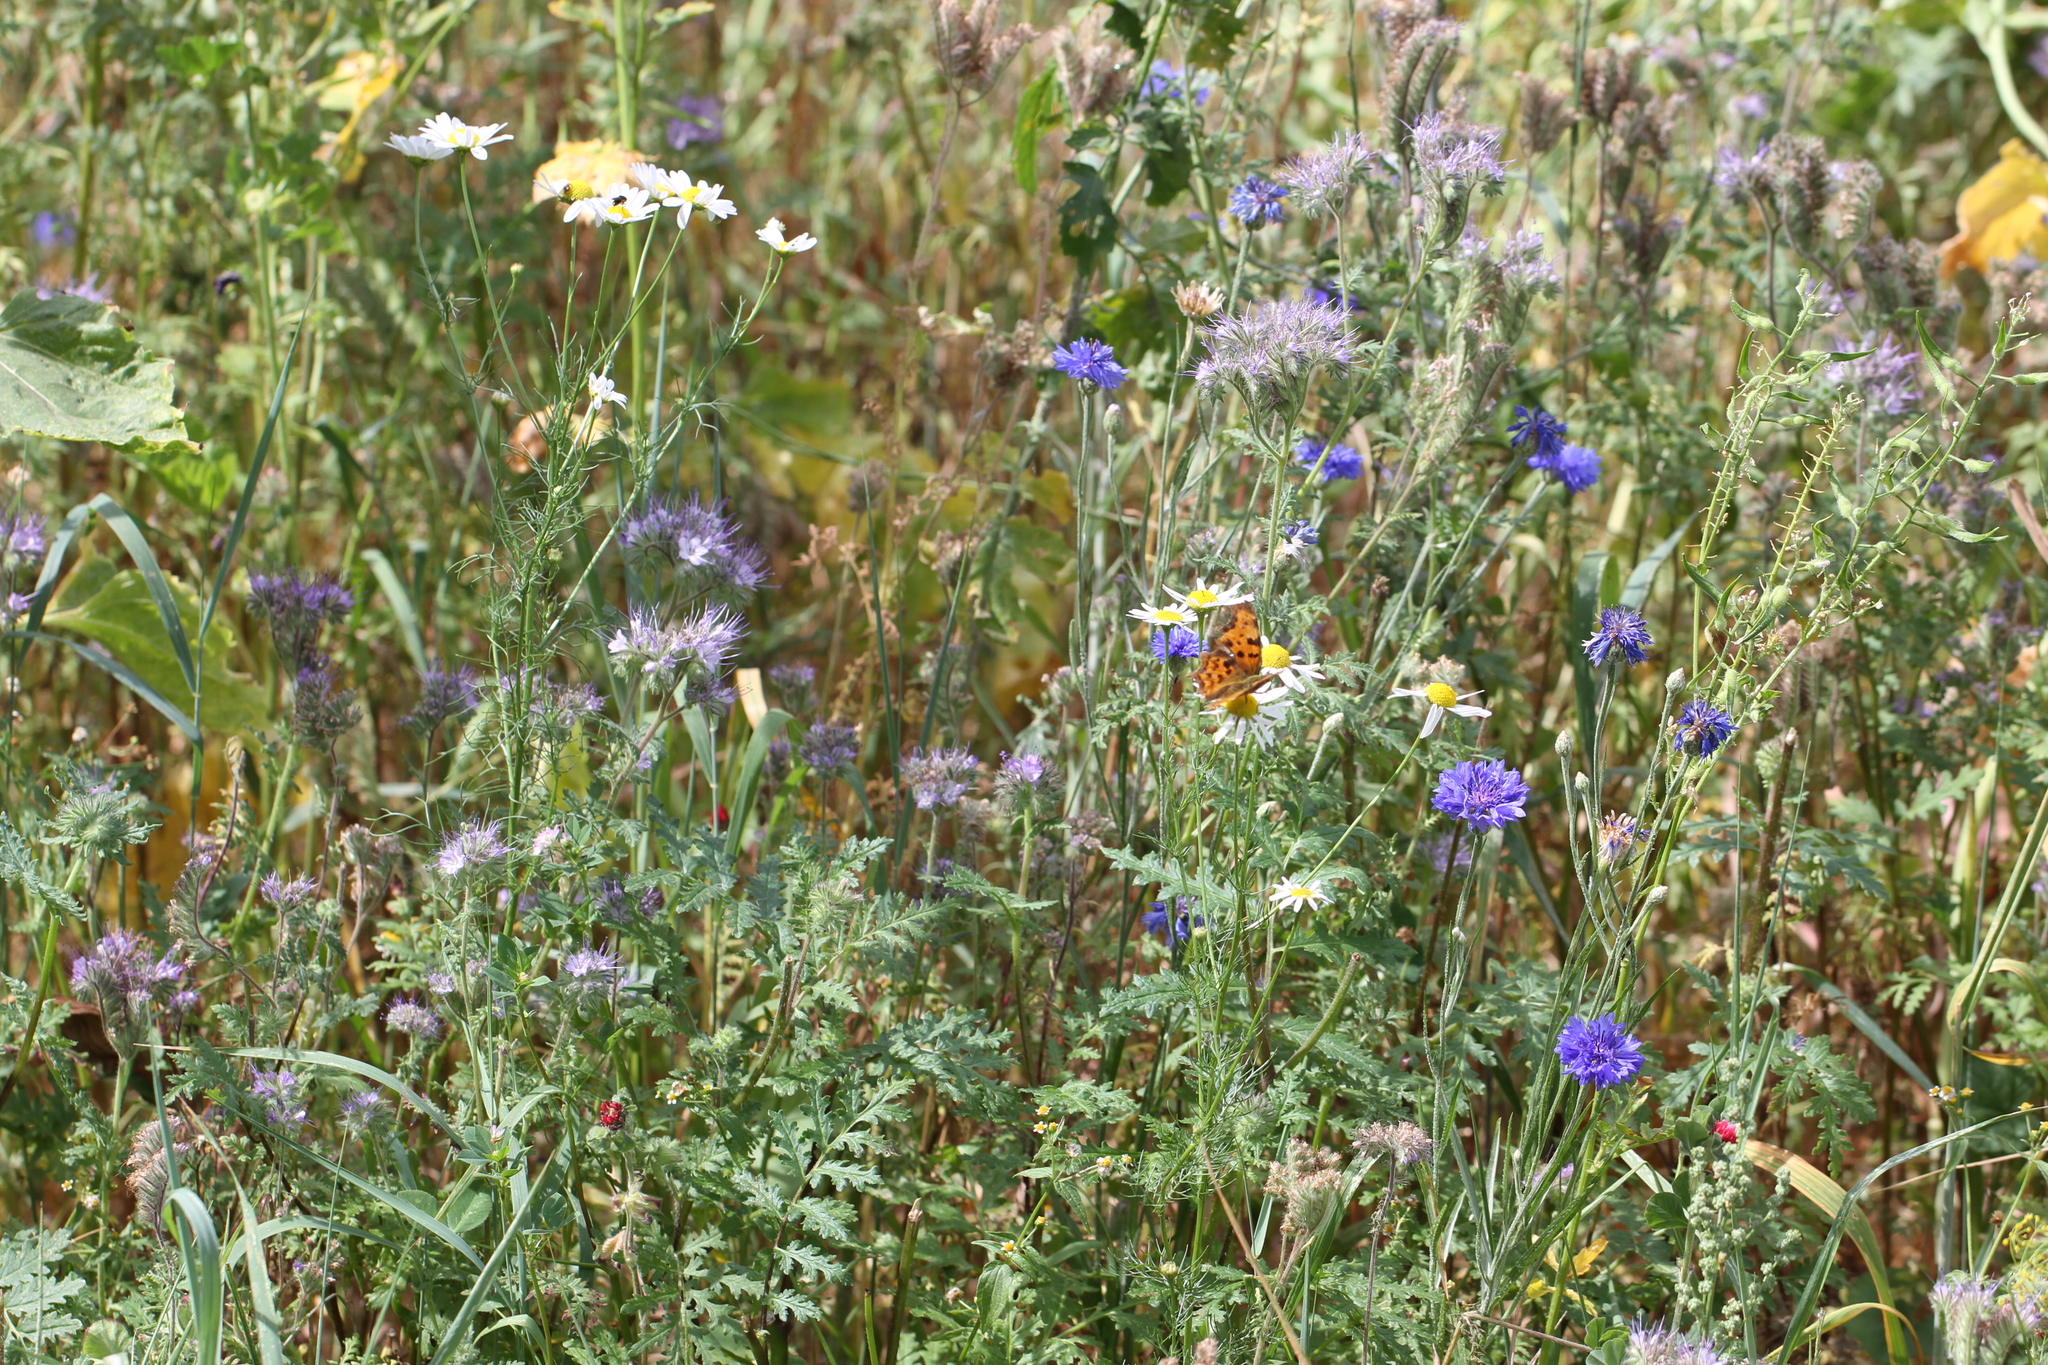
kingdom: Animalia
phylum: Arthropoda
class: Insecta
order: Lepidoptera
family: Nymphalidae
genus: Polygonia
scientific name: Polygonia c-album
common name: Comma
